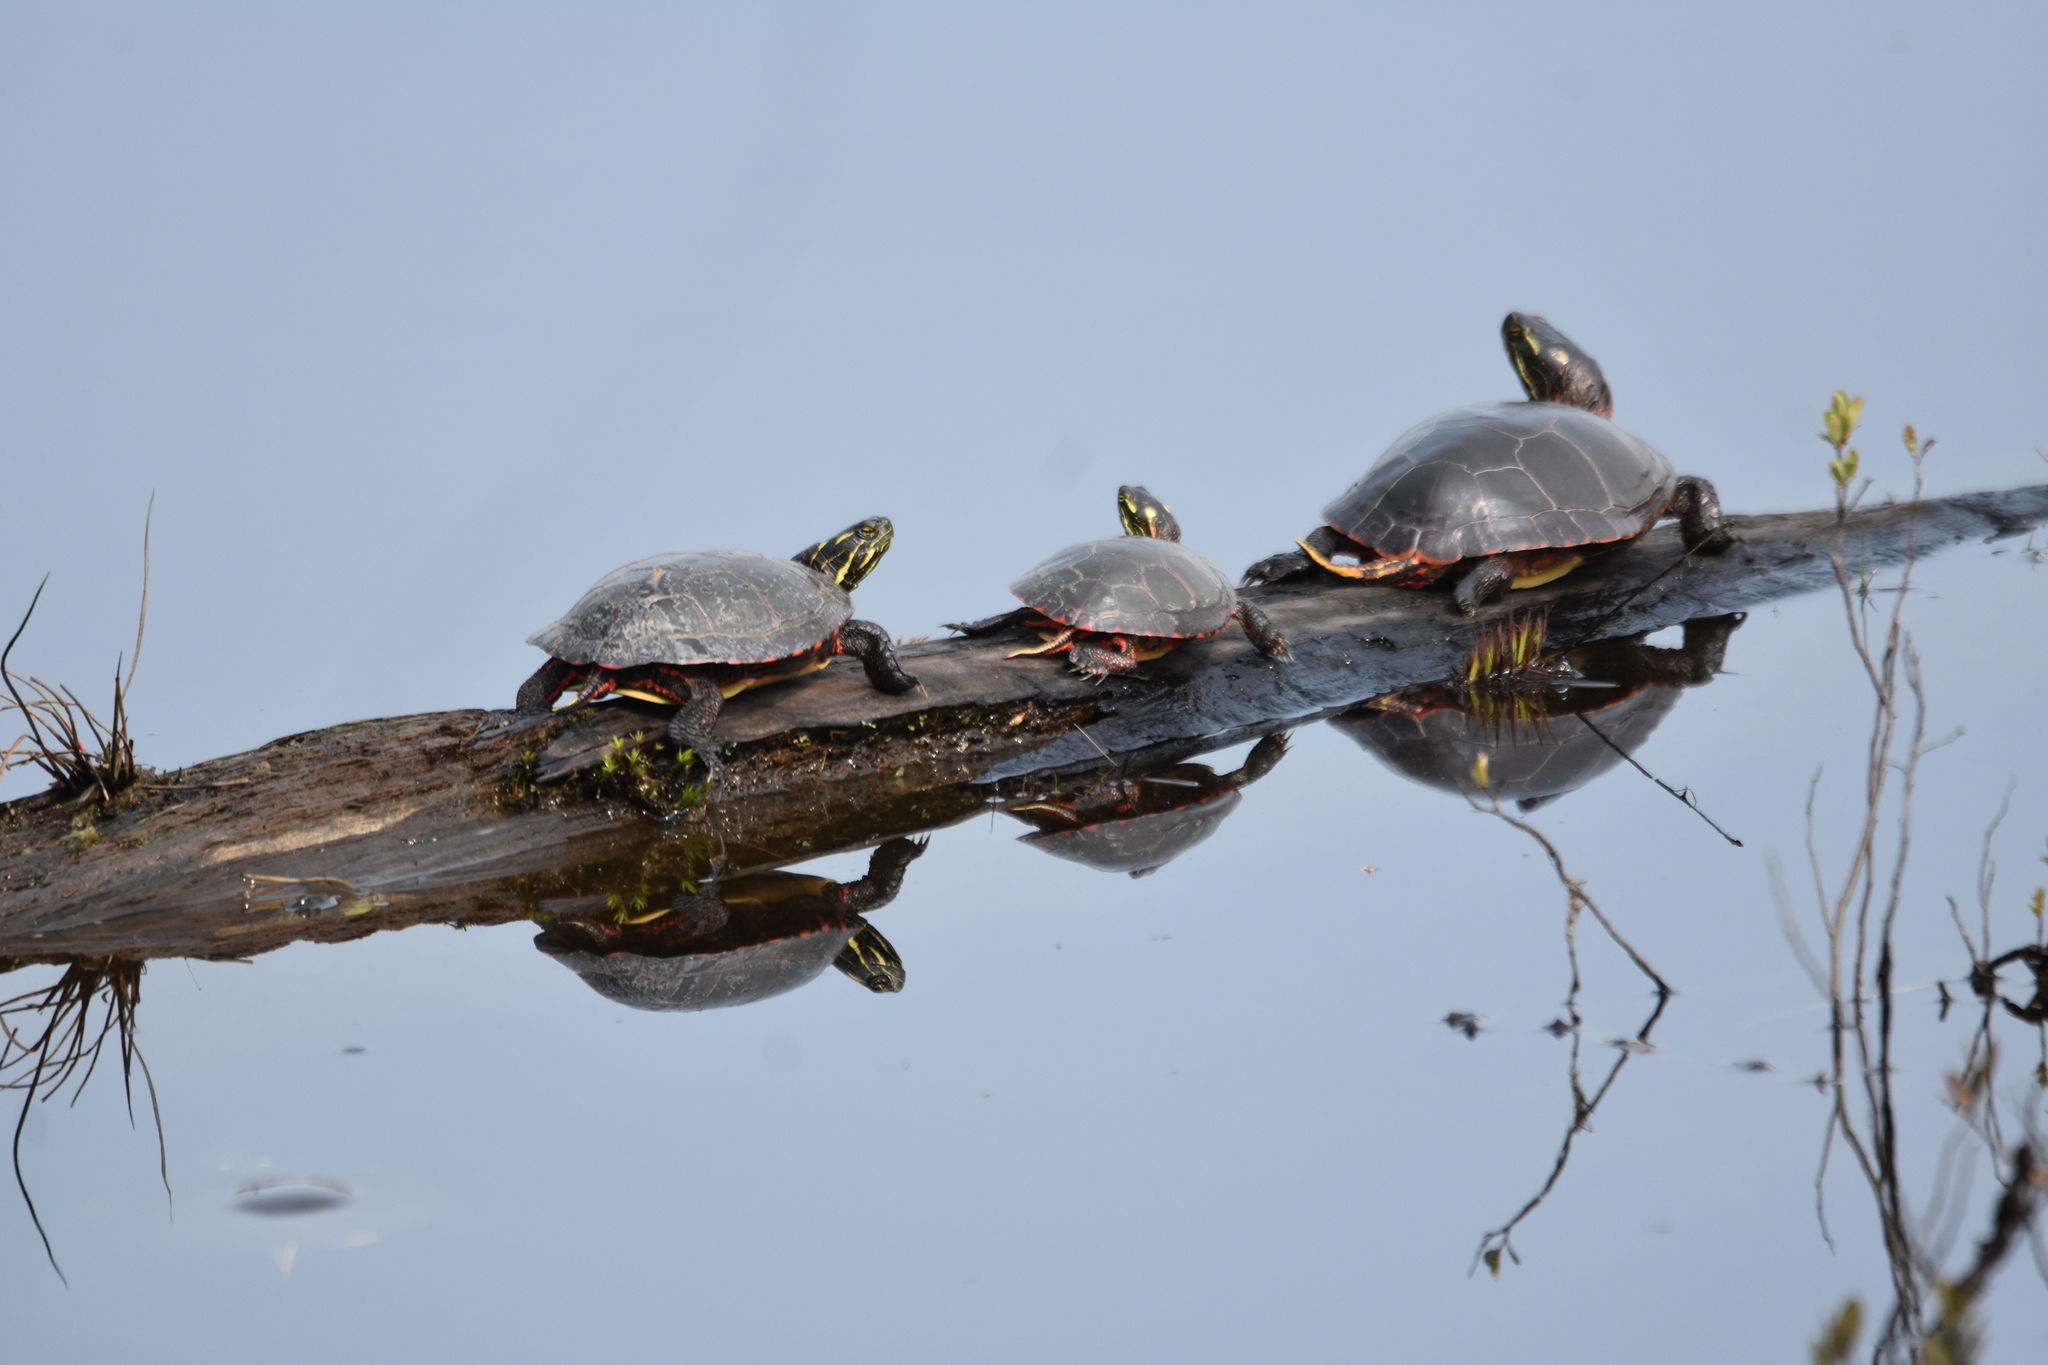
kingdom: Animalia
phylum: Chordata
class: Testudines
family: Emydidae
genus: Chrysemys
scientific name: Chrysemys picta
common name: Painted turtle
